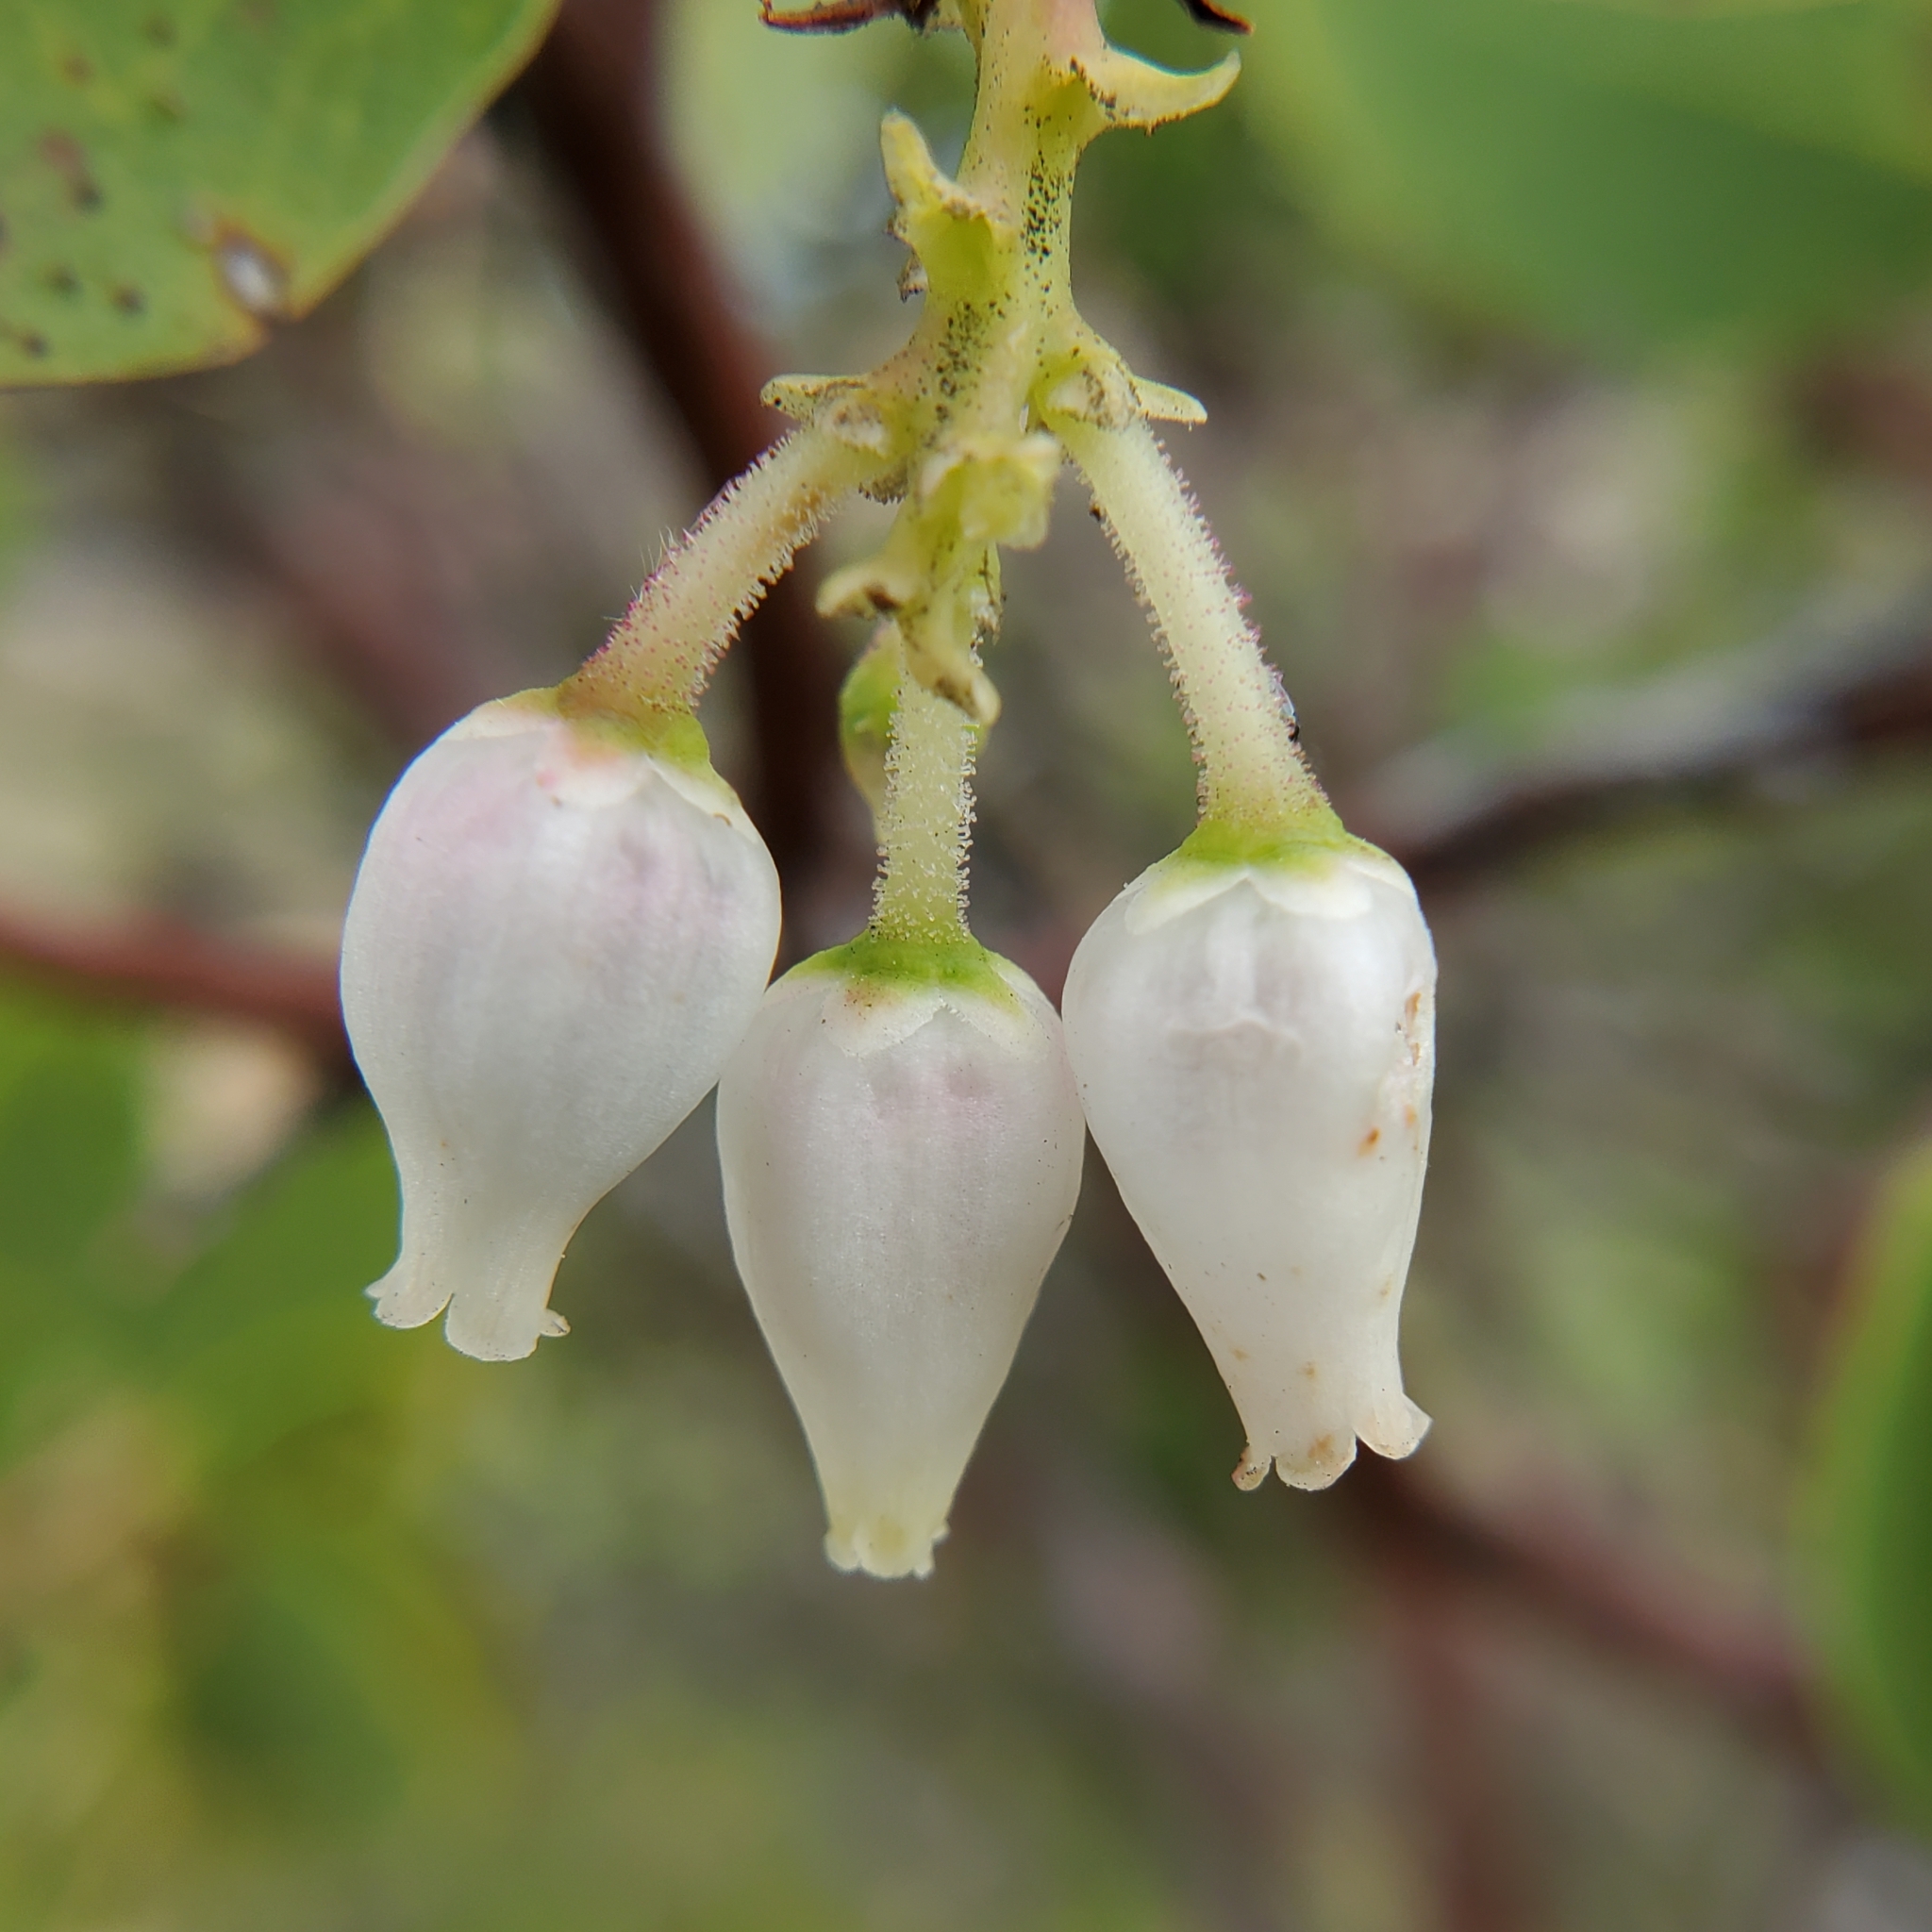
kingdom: Plantae
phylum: Tracheophyta
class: Magnoliopsida
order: Ericales
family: Ericaceae
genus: Arctostaphylos
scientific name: Arctostaphylos glauca
